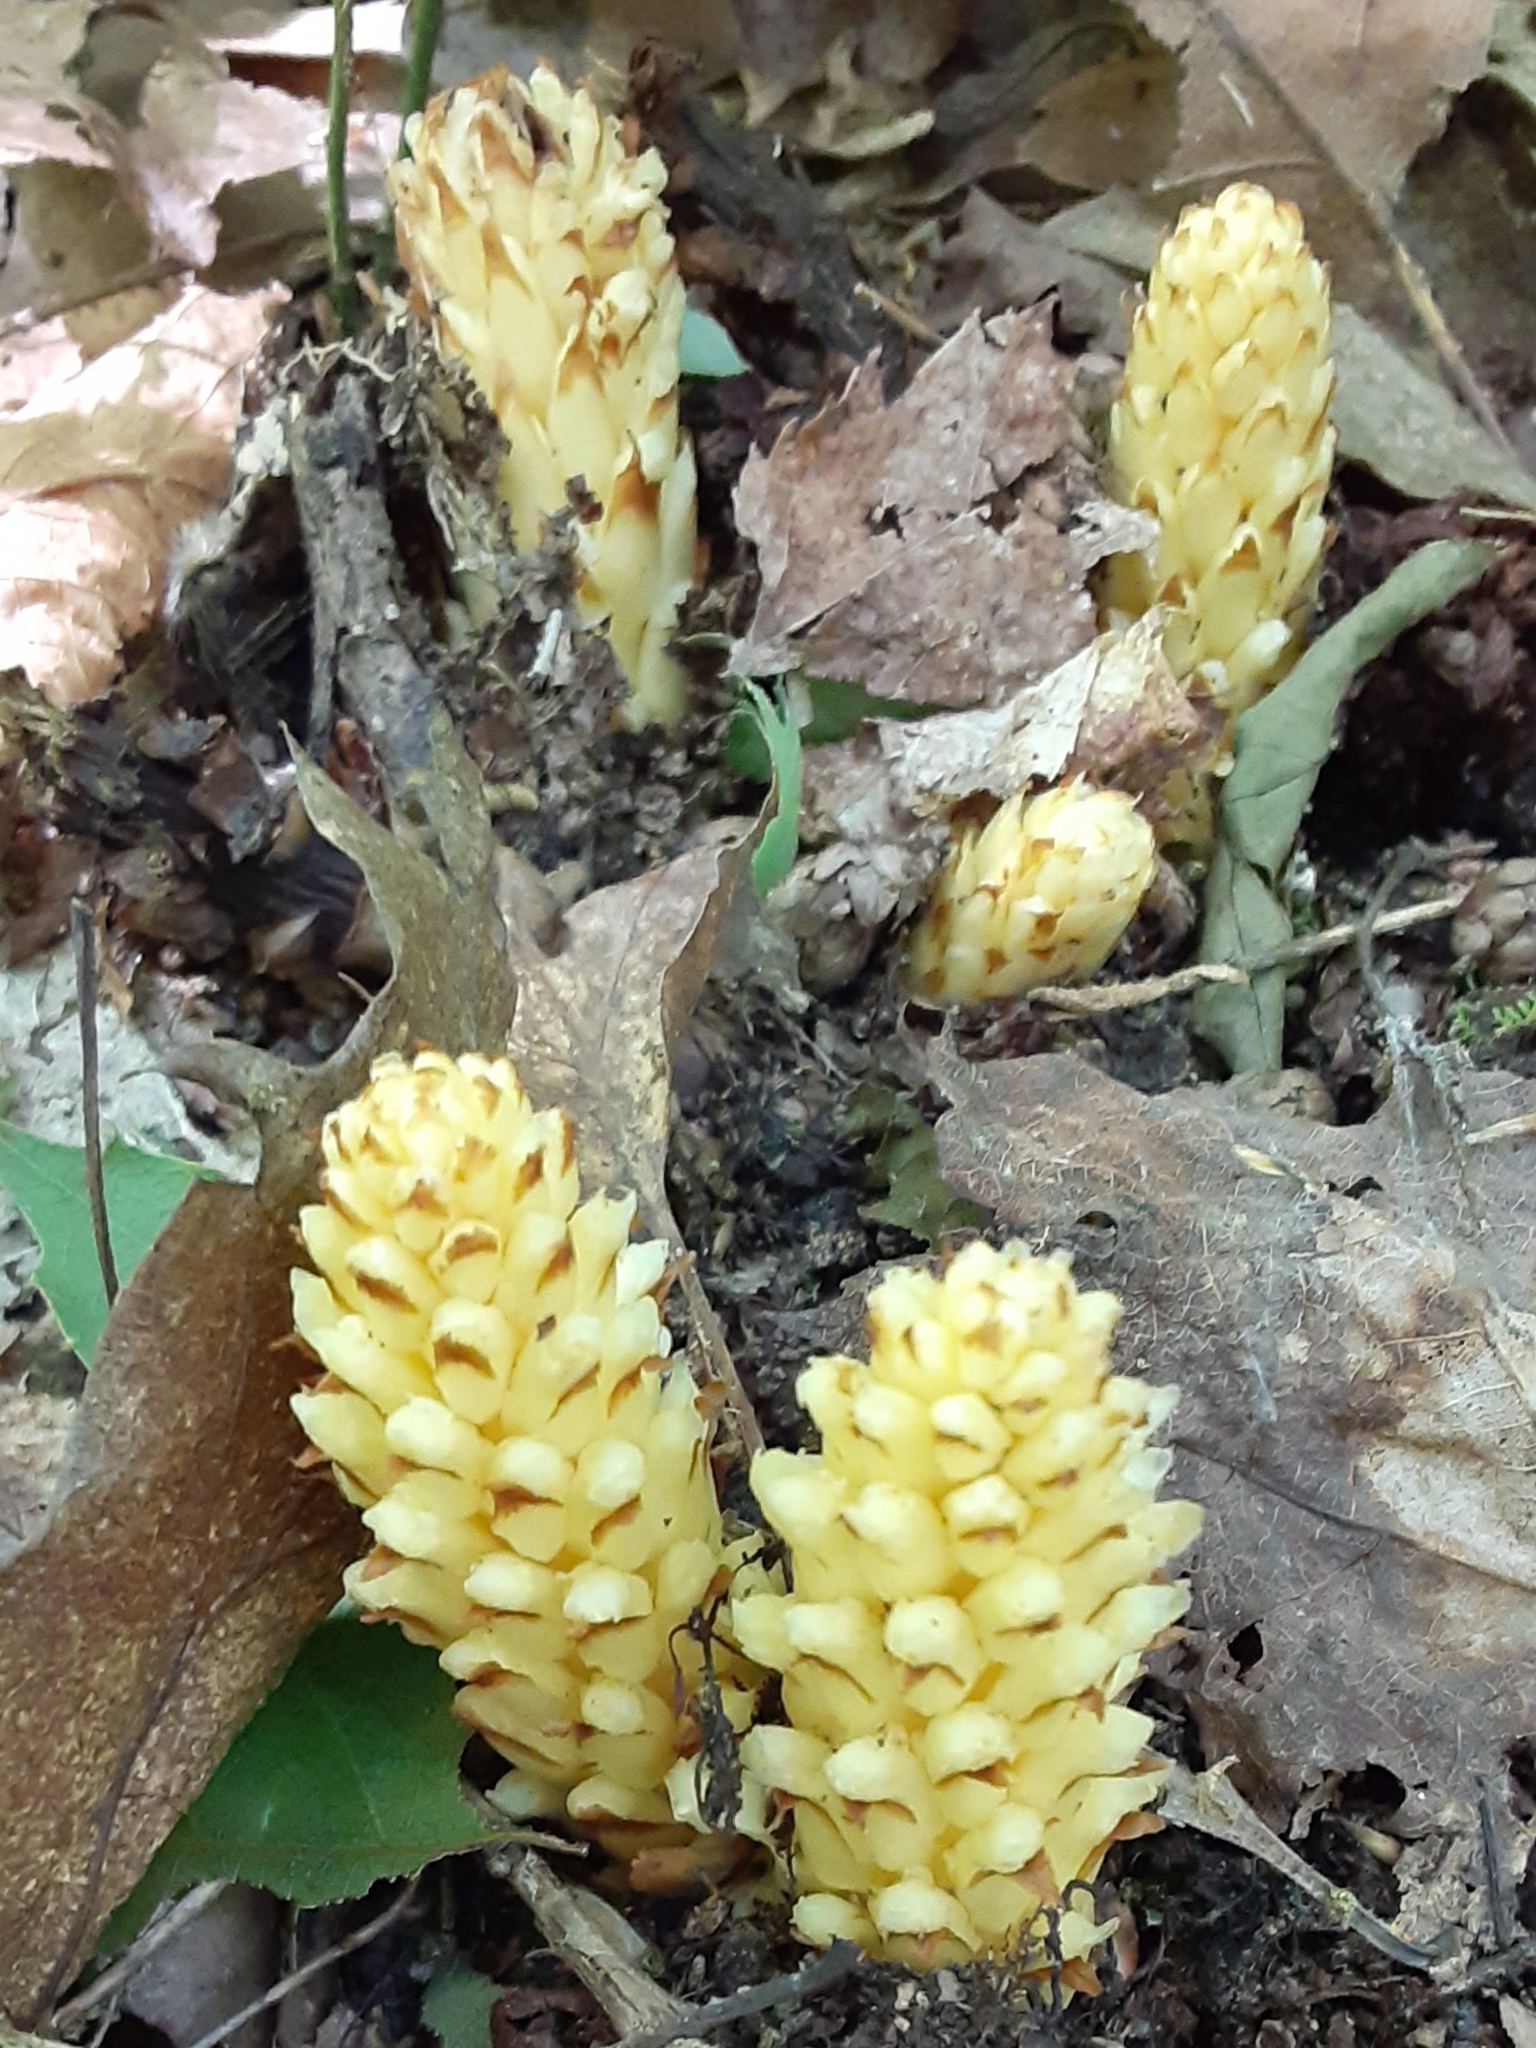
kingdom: Plantae
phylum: Tracheophyta
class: Magnoliopsida
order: Lamiales
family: Orobanchaceae
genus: Conopholis
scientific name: Conopholis americana
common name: American cancer-root
